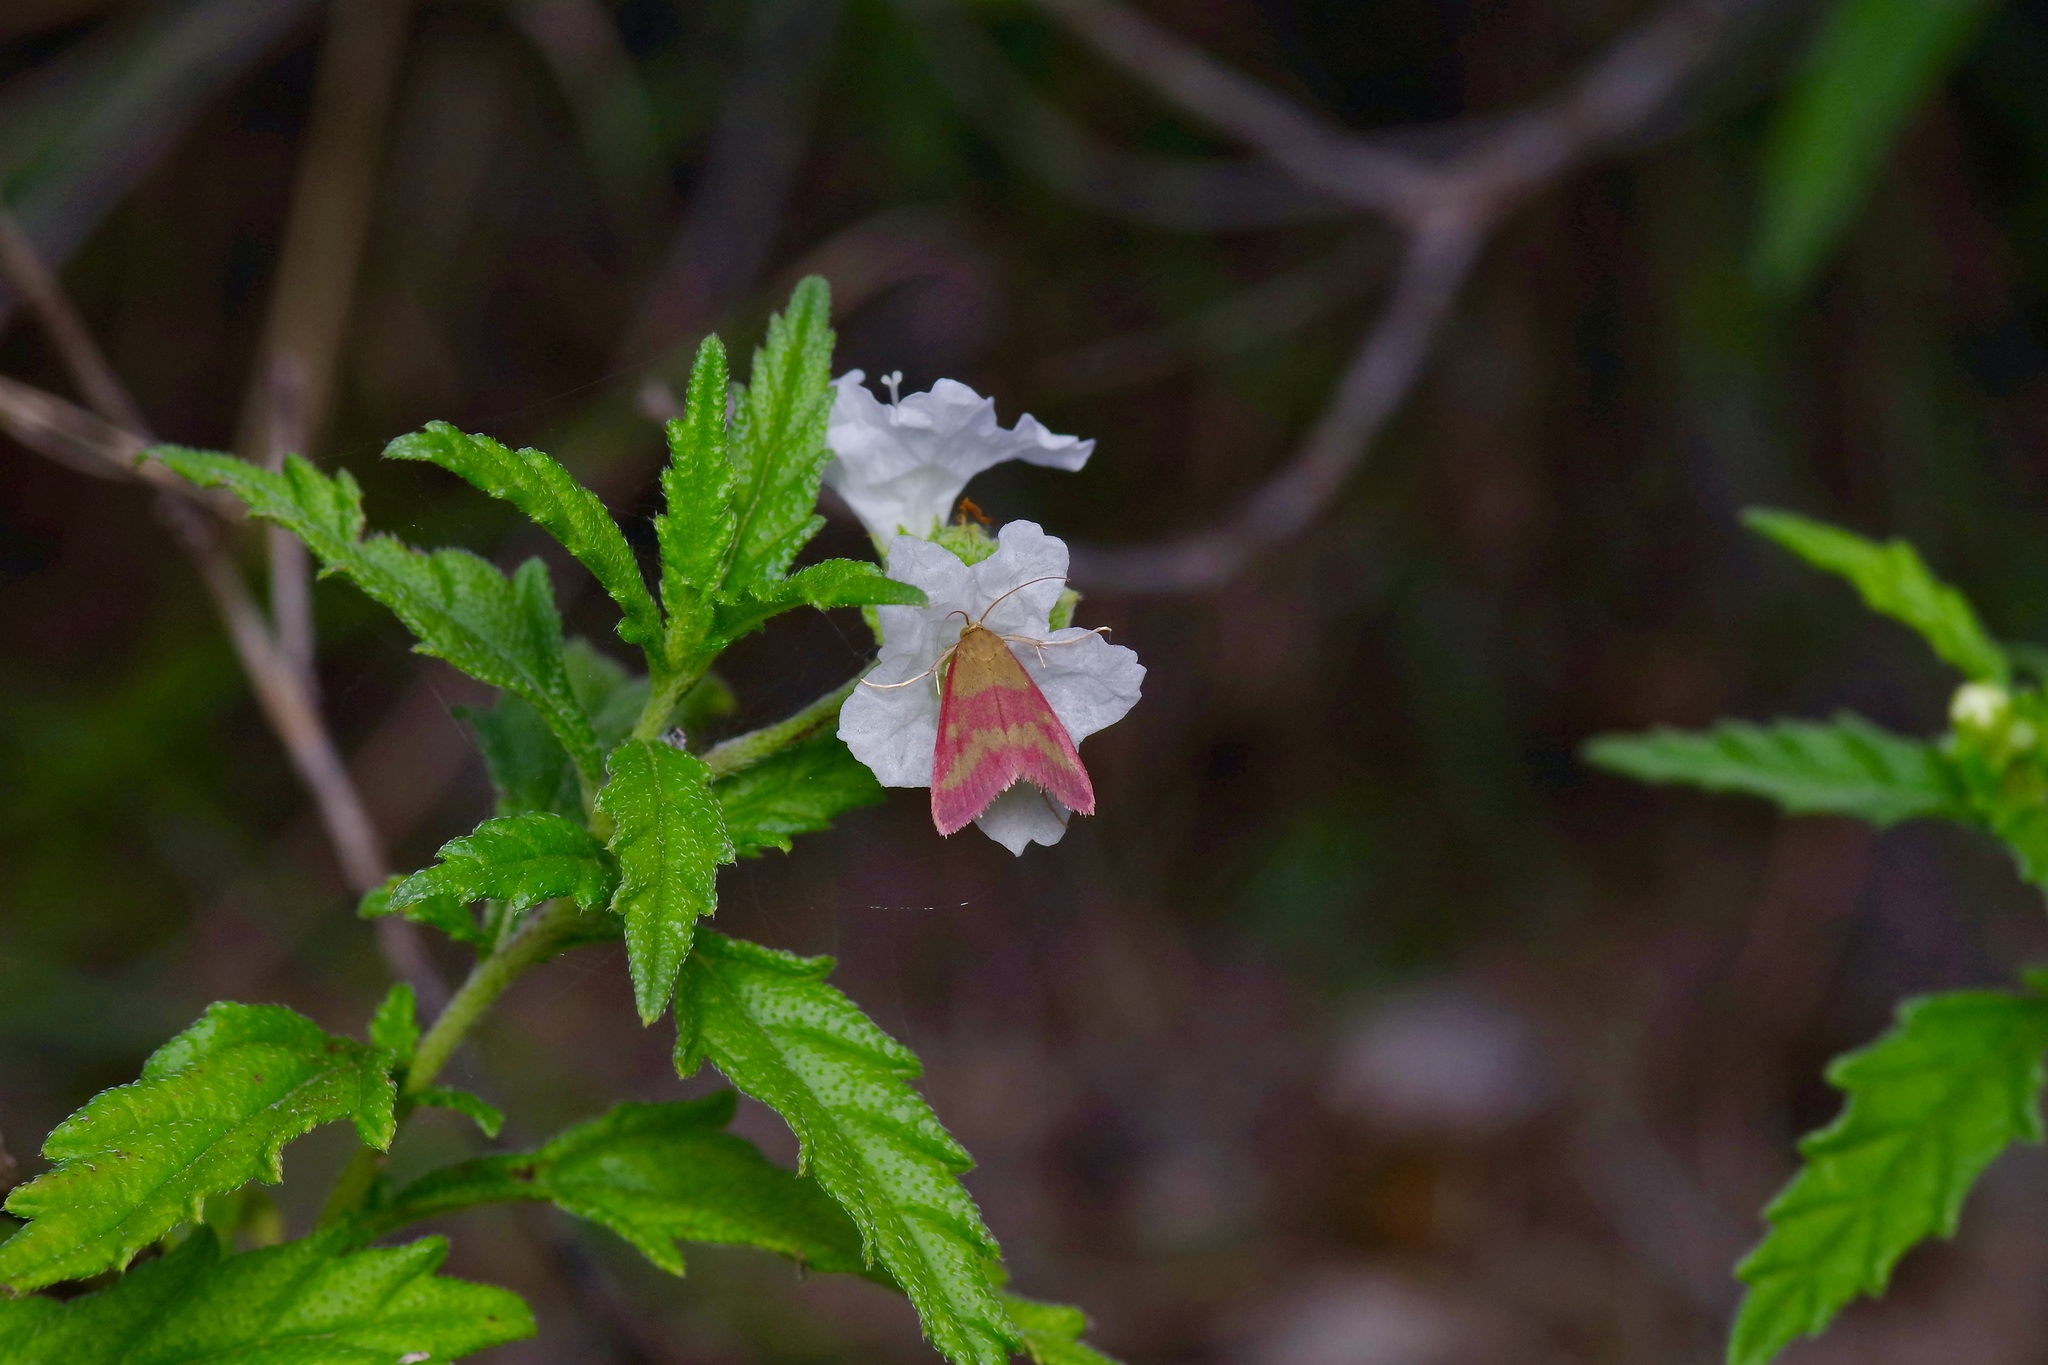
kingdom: Animalia
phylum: Arthropoda
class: Insecta
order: Lepidoptera
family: Crambidae
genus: Pyrausta
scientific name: Pyrausta laticlavia
